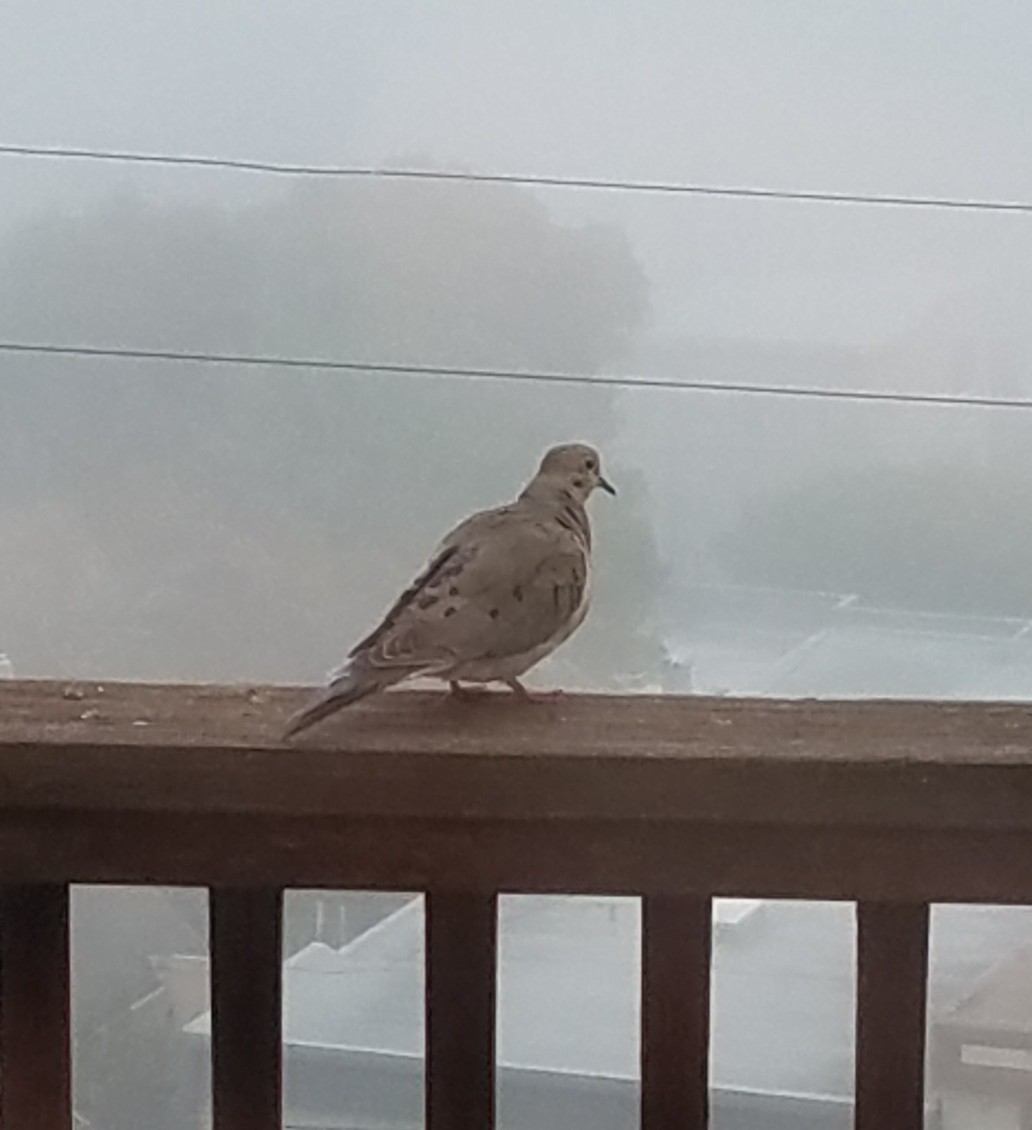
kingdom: Animalia
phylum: Chordata
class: Aves
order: Columbiformes
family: Columbidae
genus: Zenaida
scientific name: Zenaida macroura
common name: Mourning dove
